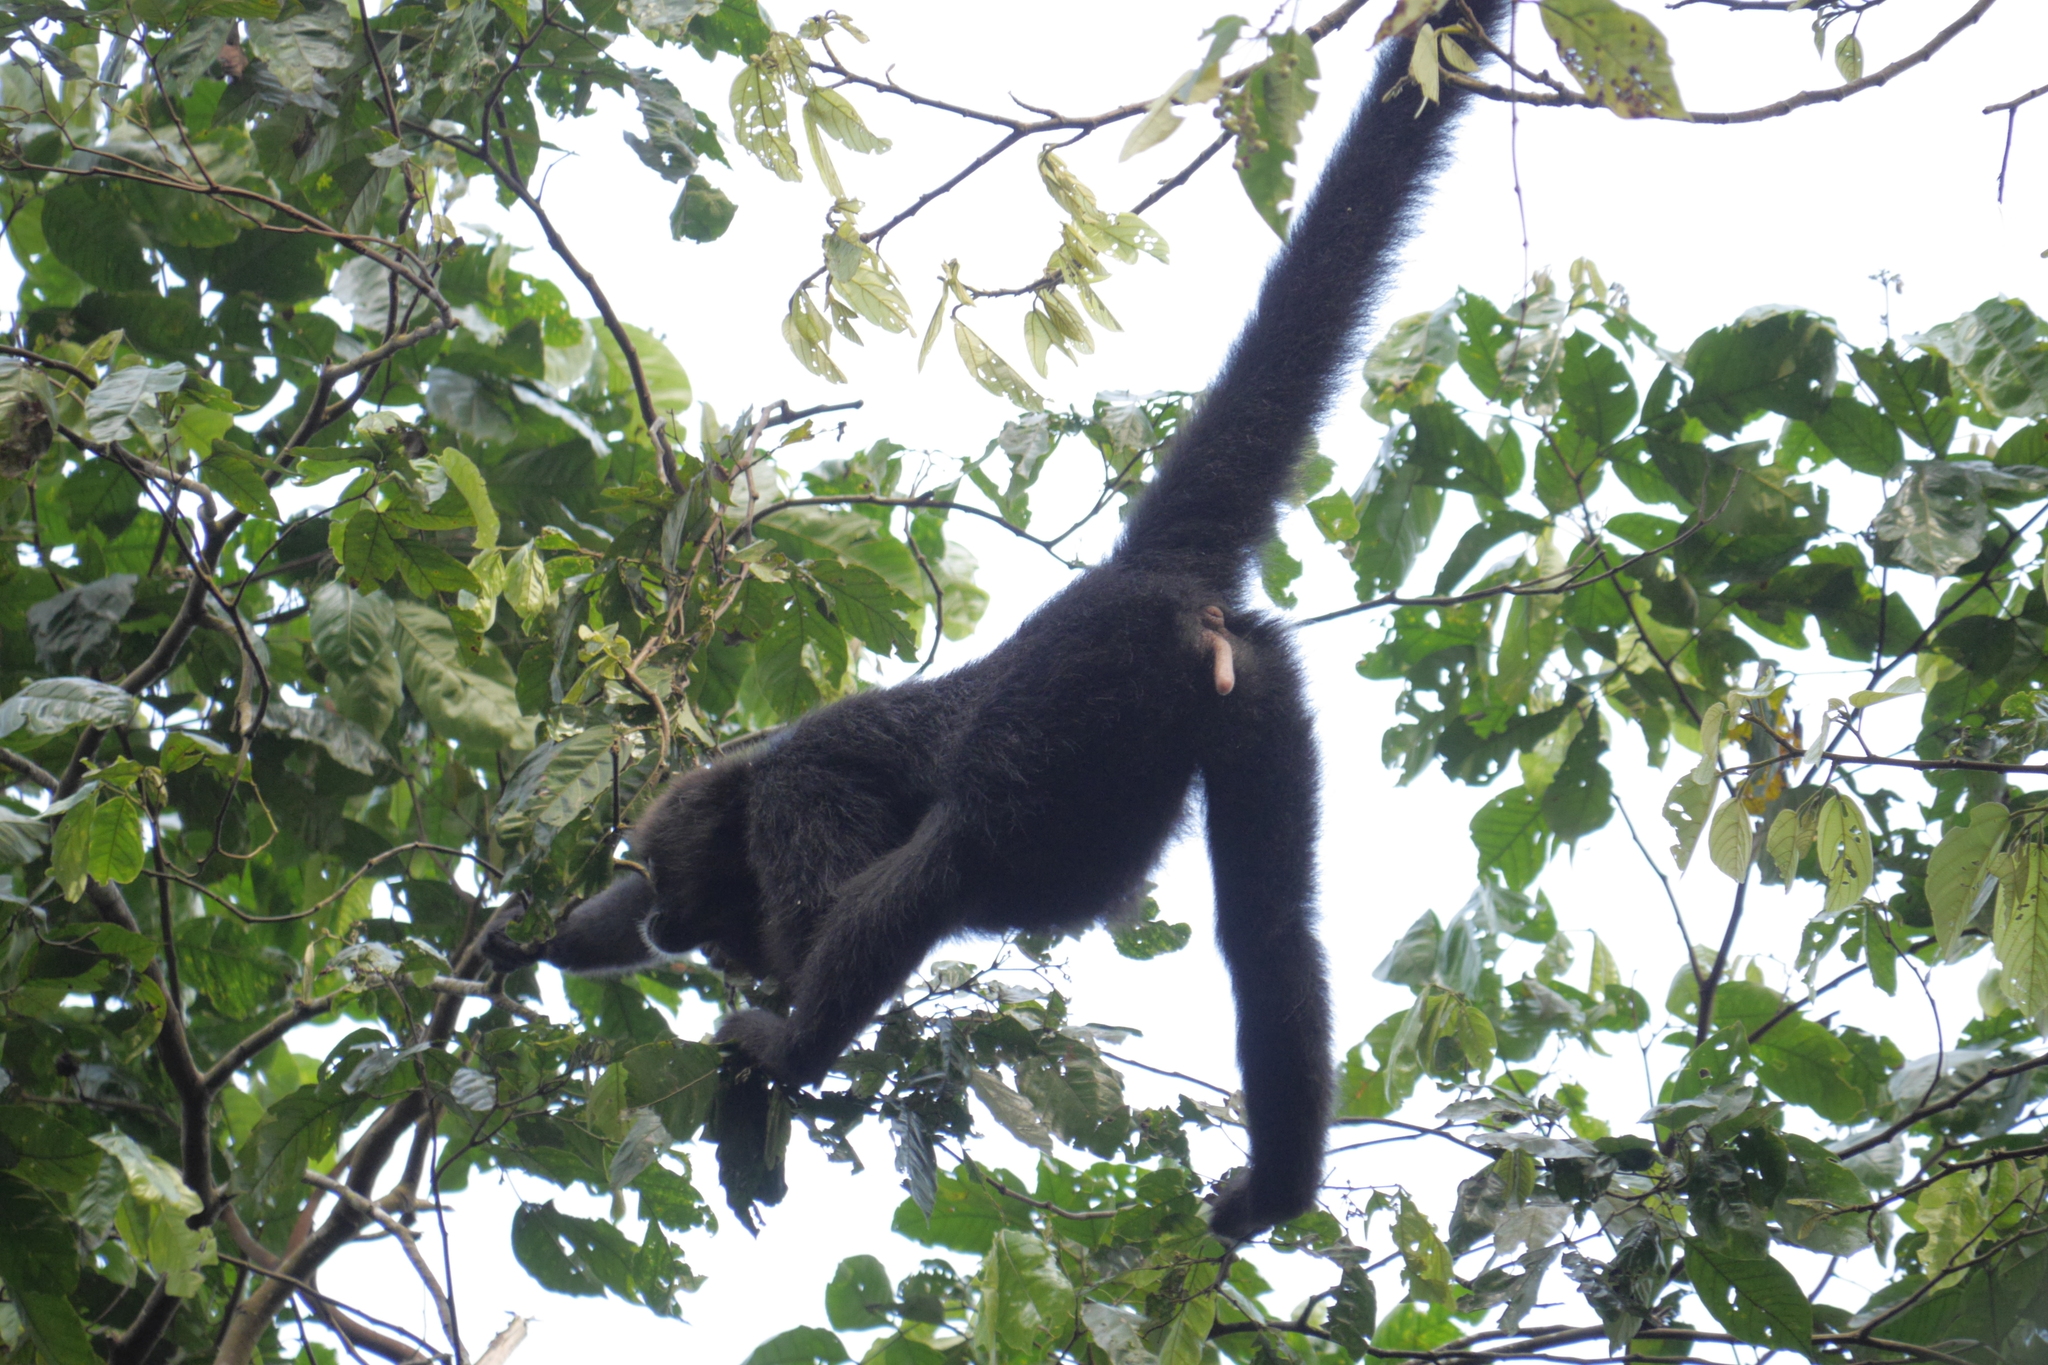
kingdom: Animalia
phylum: Chordata
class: Mammalia
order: Primates
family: Atelidae
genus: Ateles
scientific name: Ateles fusciceps
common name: Black-headed spider monkey
